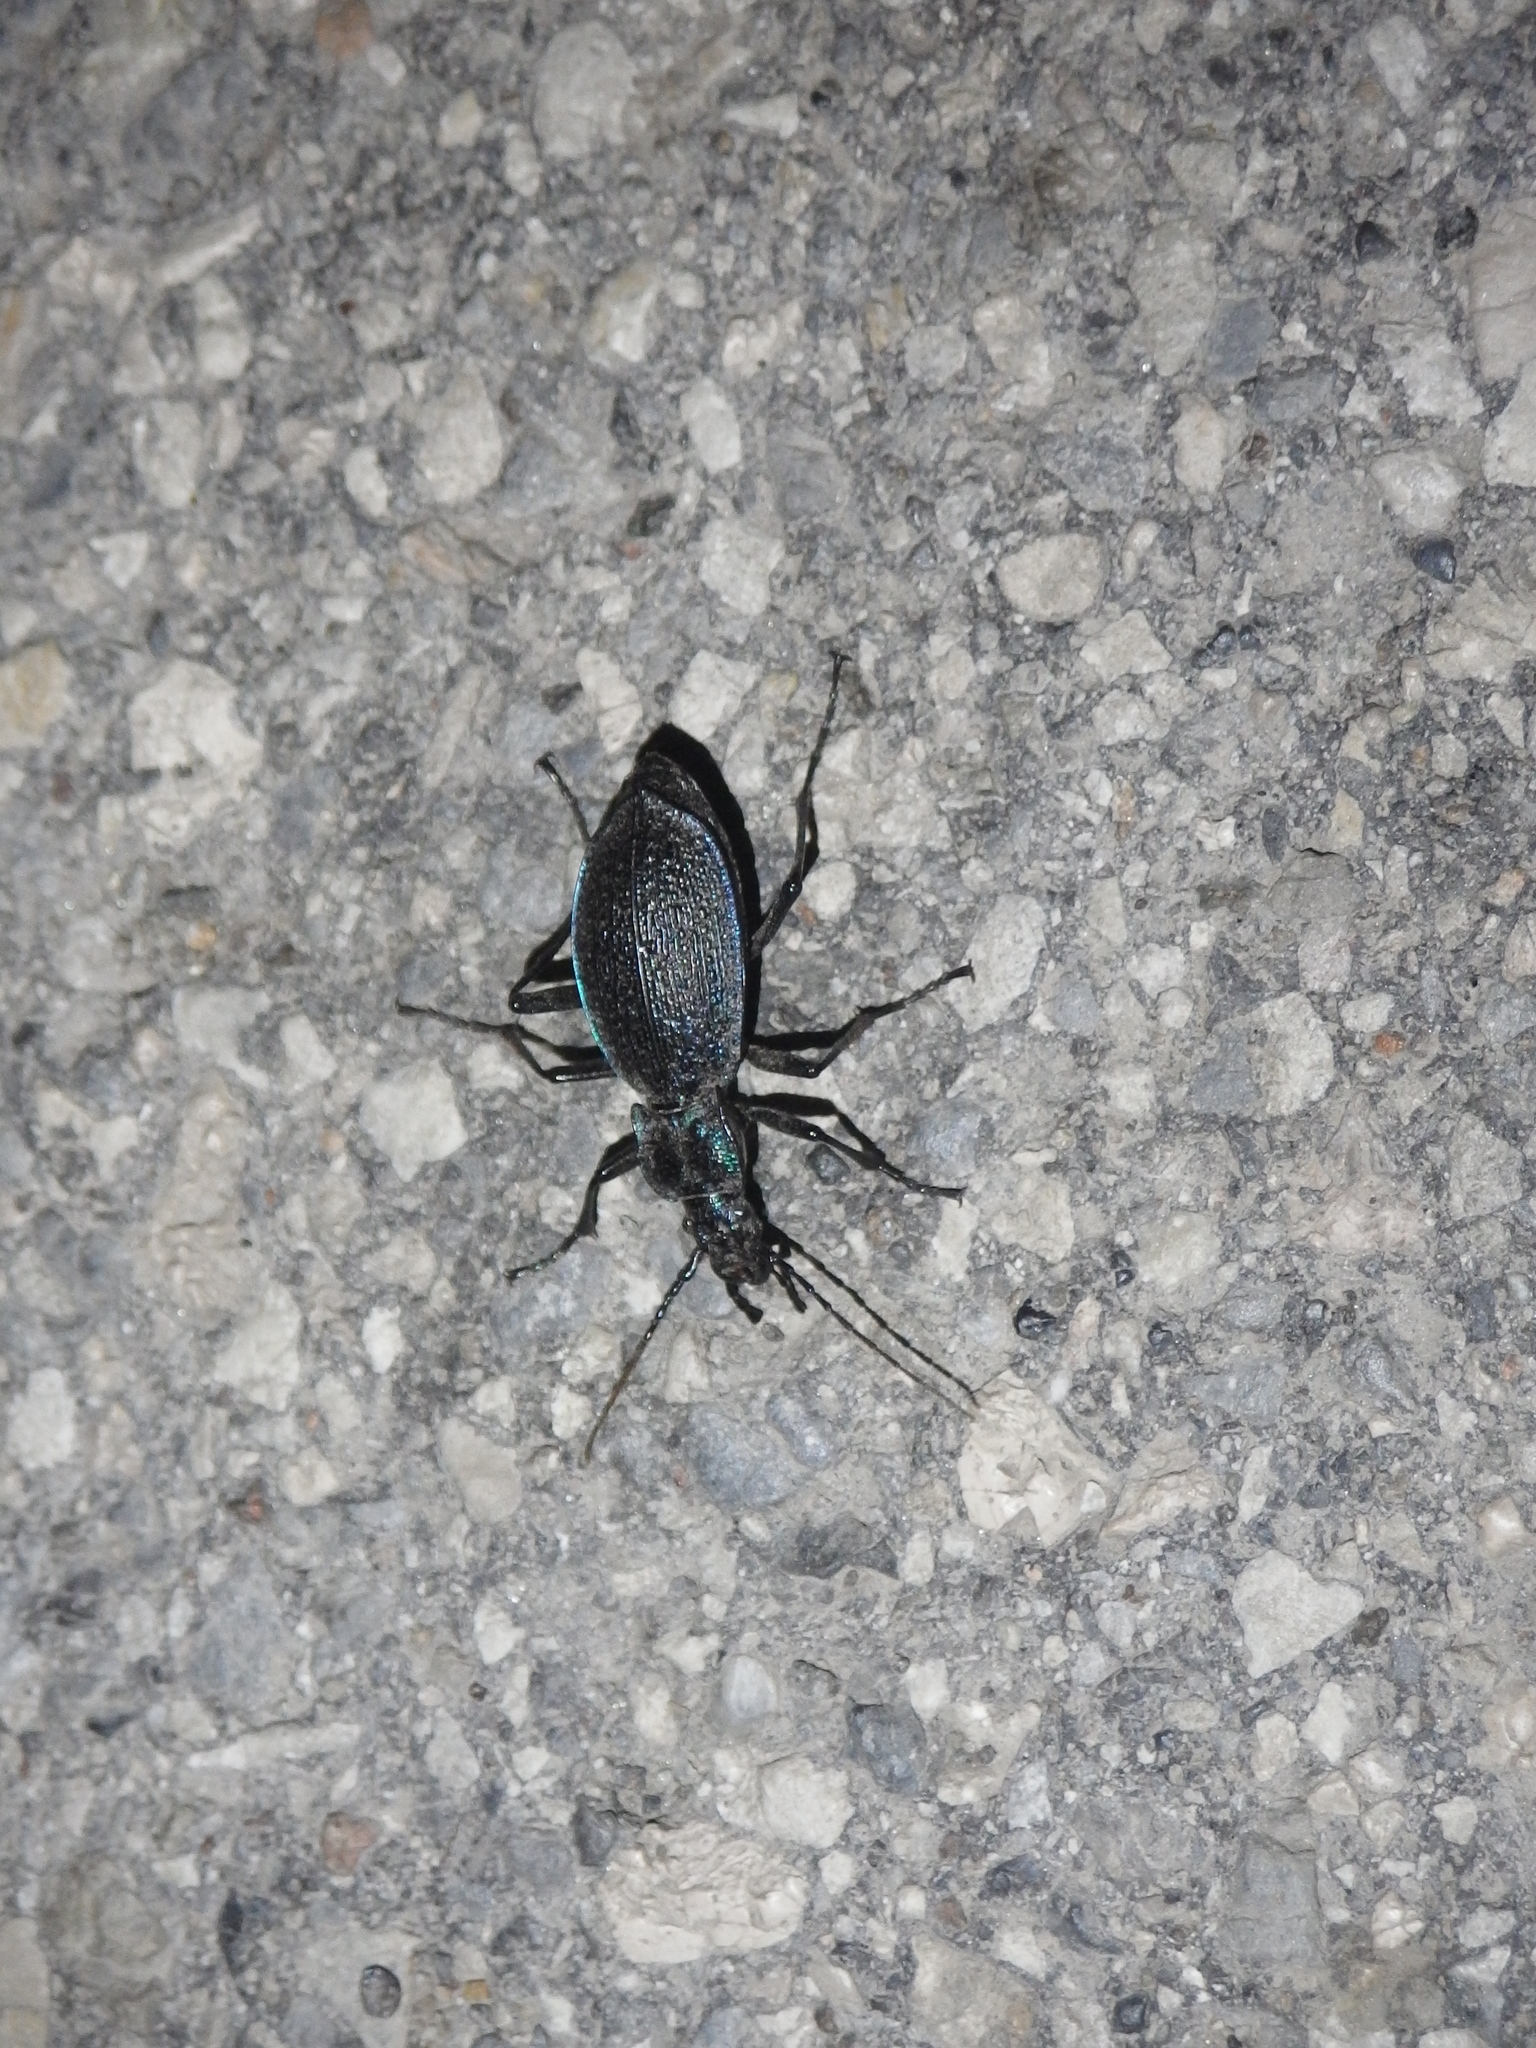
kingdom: Animalia
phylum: Arthropoda
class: Insecta
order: Coleoptera
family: Carabidae
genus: Carabus
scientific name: Carabus intricatus
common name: Blue ground beetle
